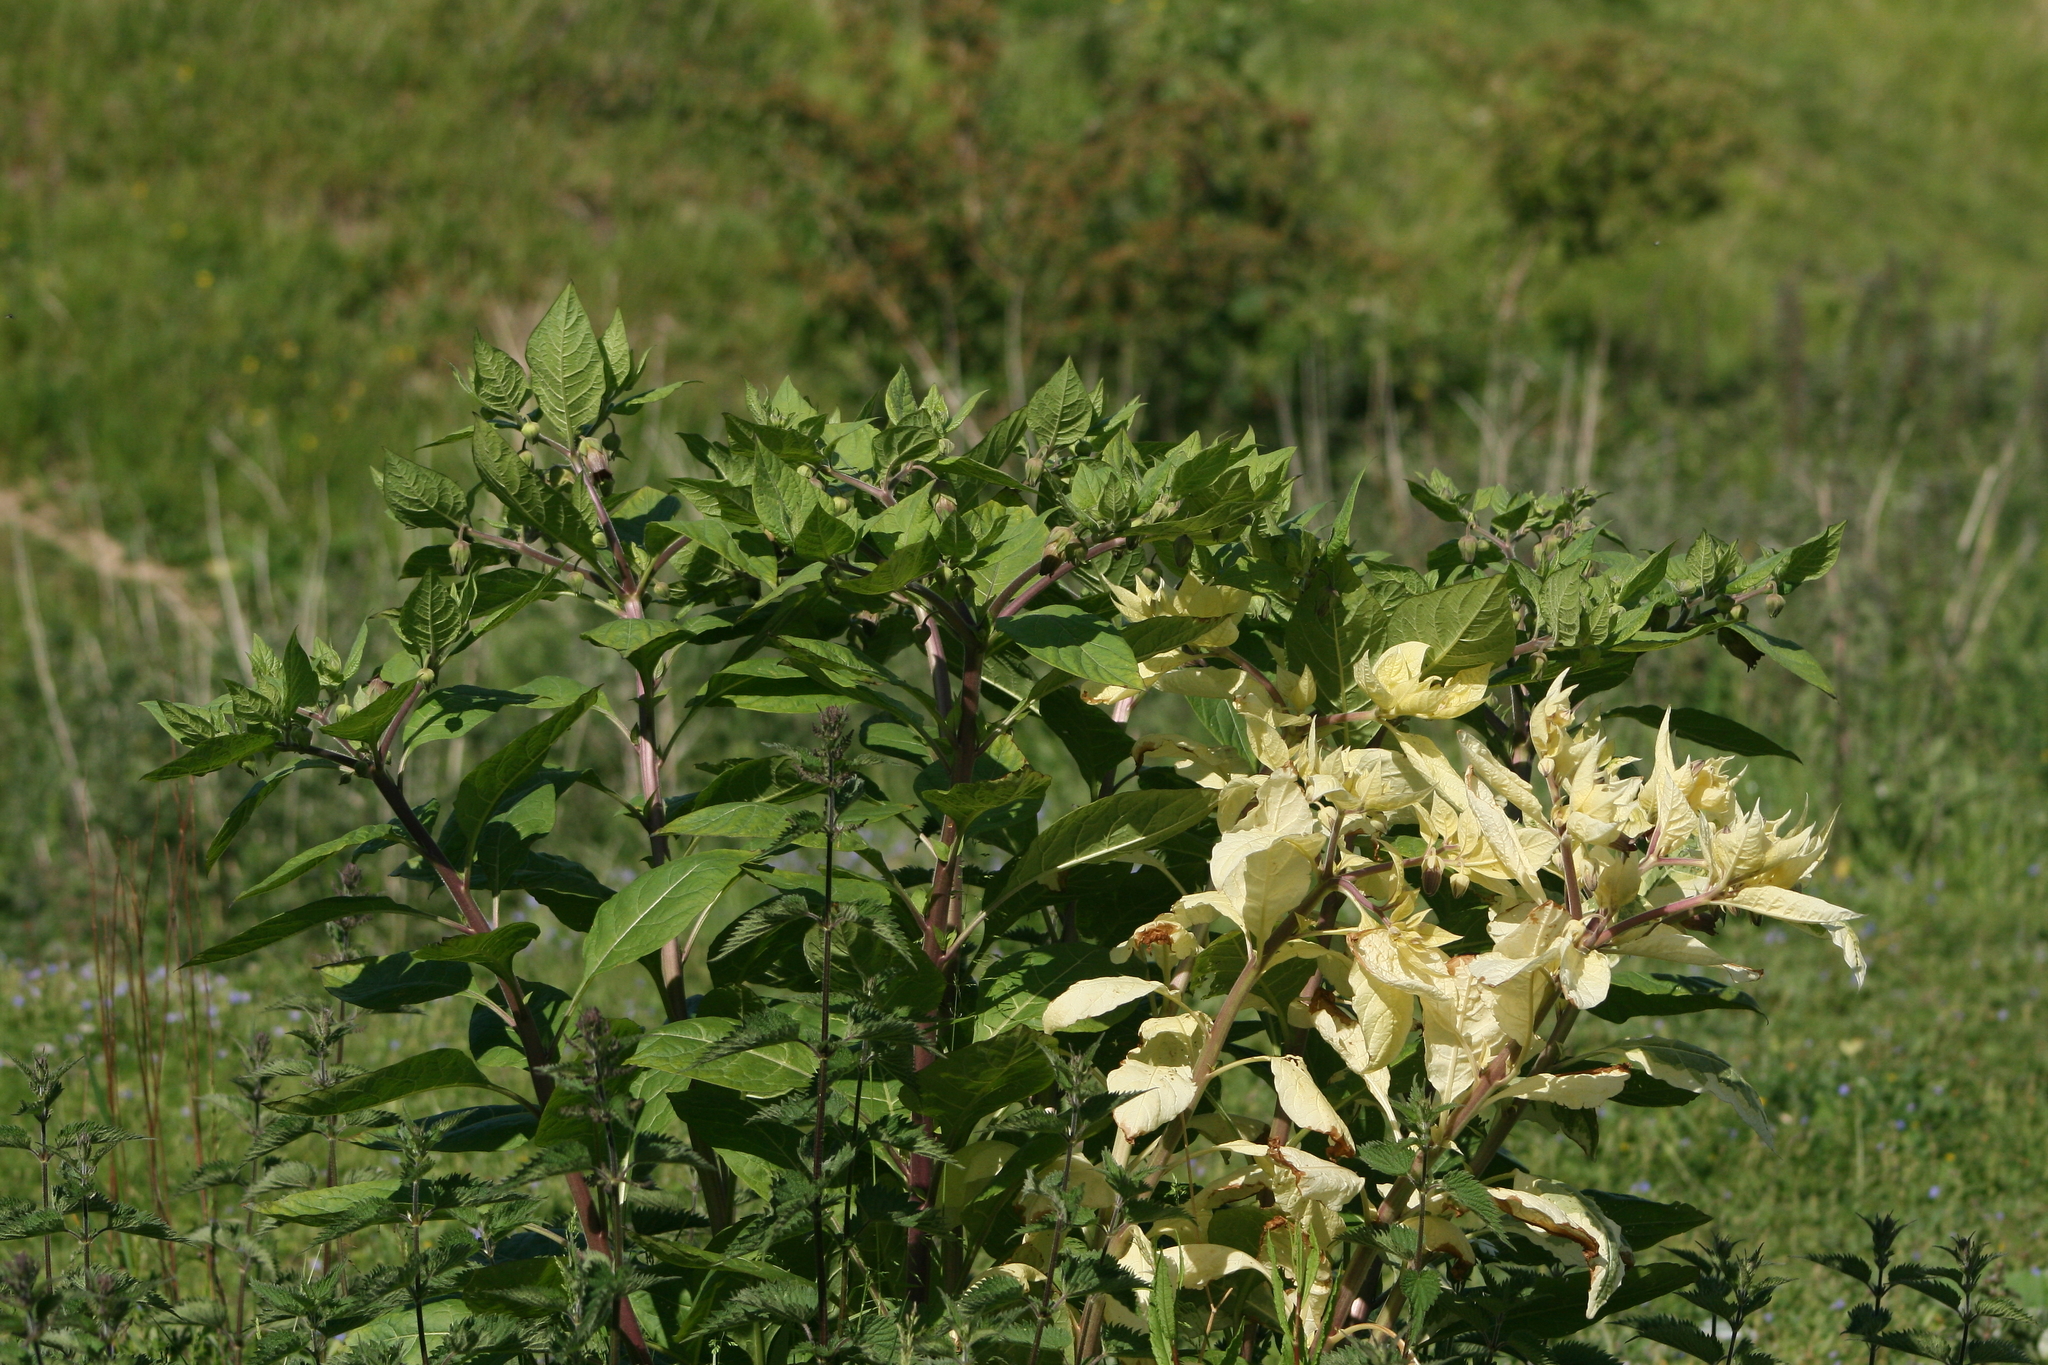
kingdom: Plantae
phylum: Tracheophyta
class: Magnoliopsida
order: Solanales
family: Solanaceae
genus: Atropa
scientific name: Atropa belladonna
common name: Deadly nightshade
